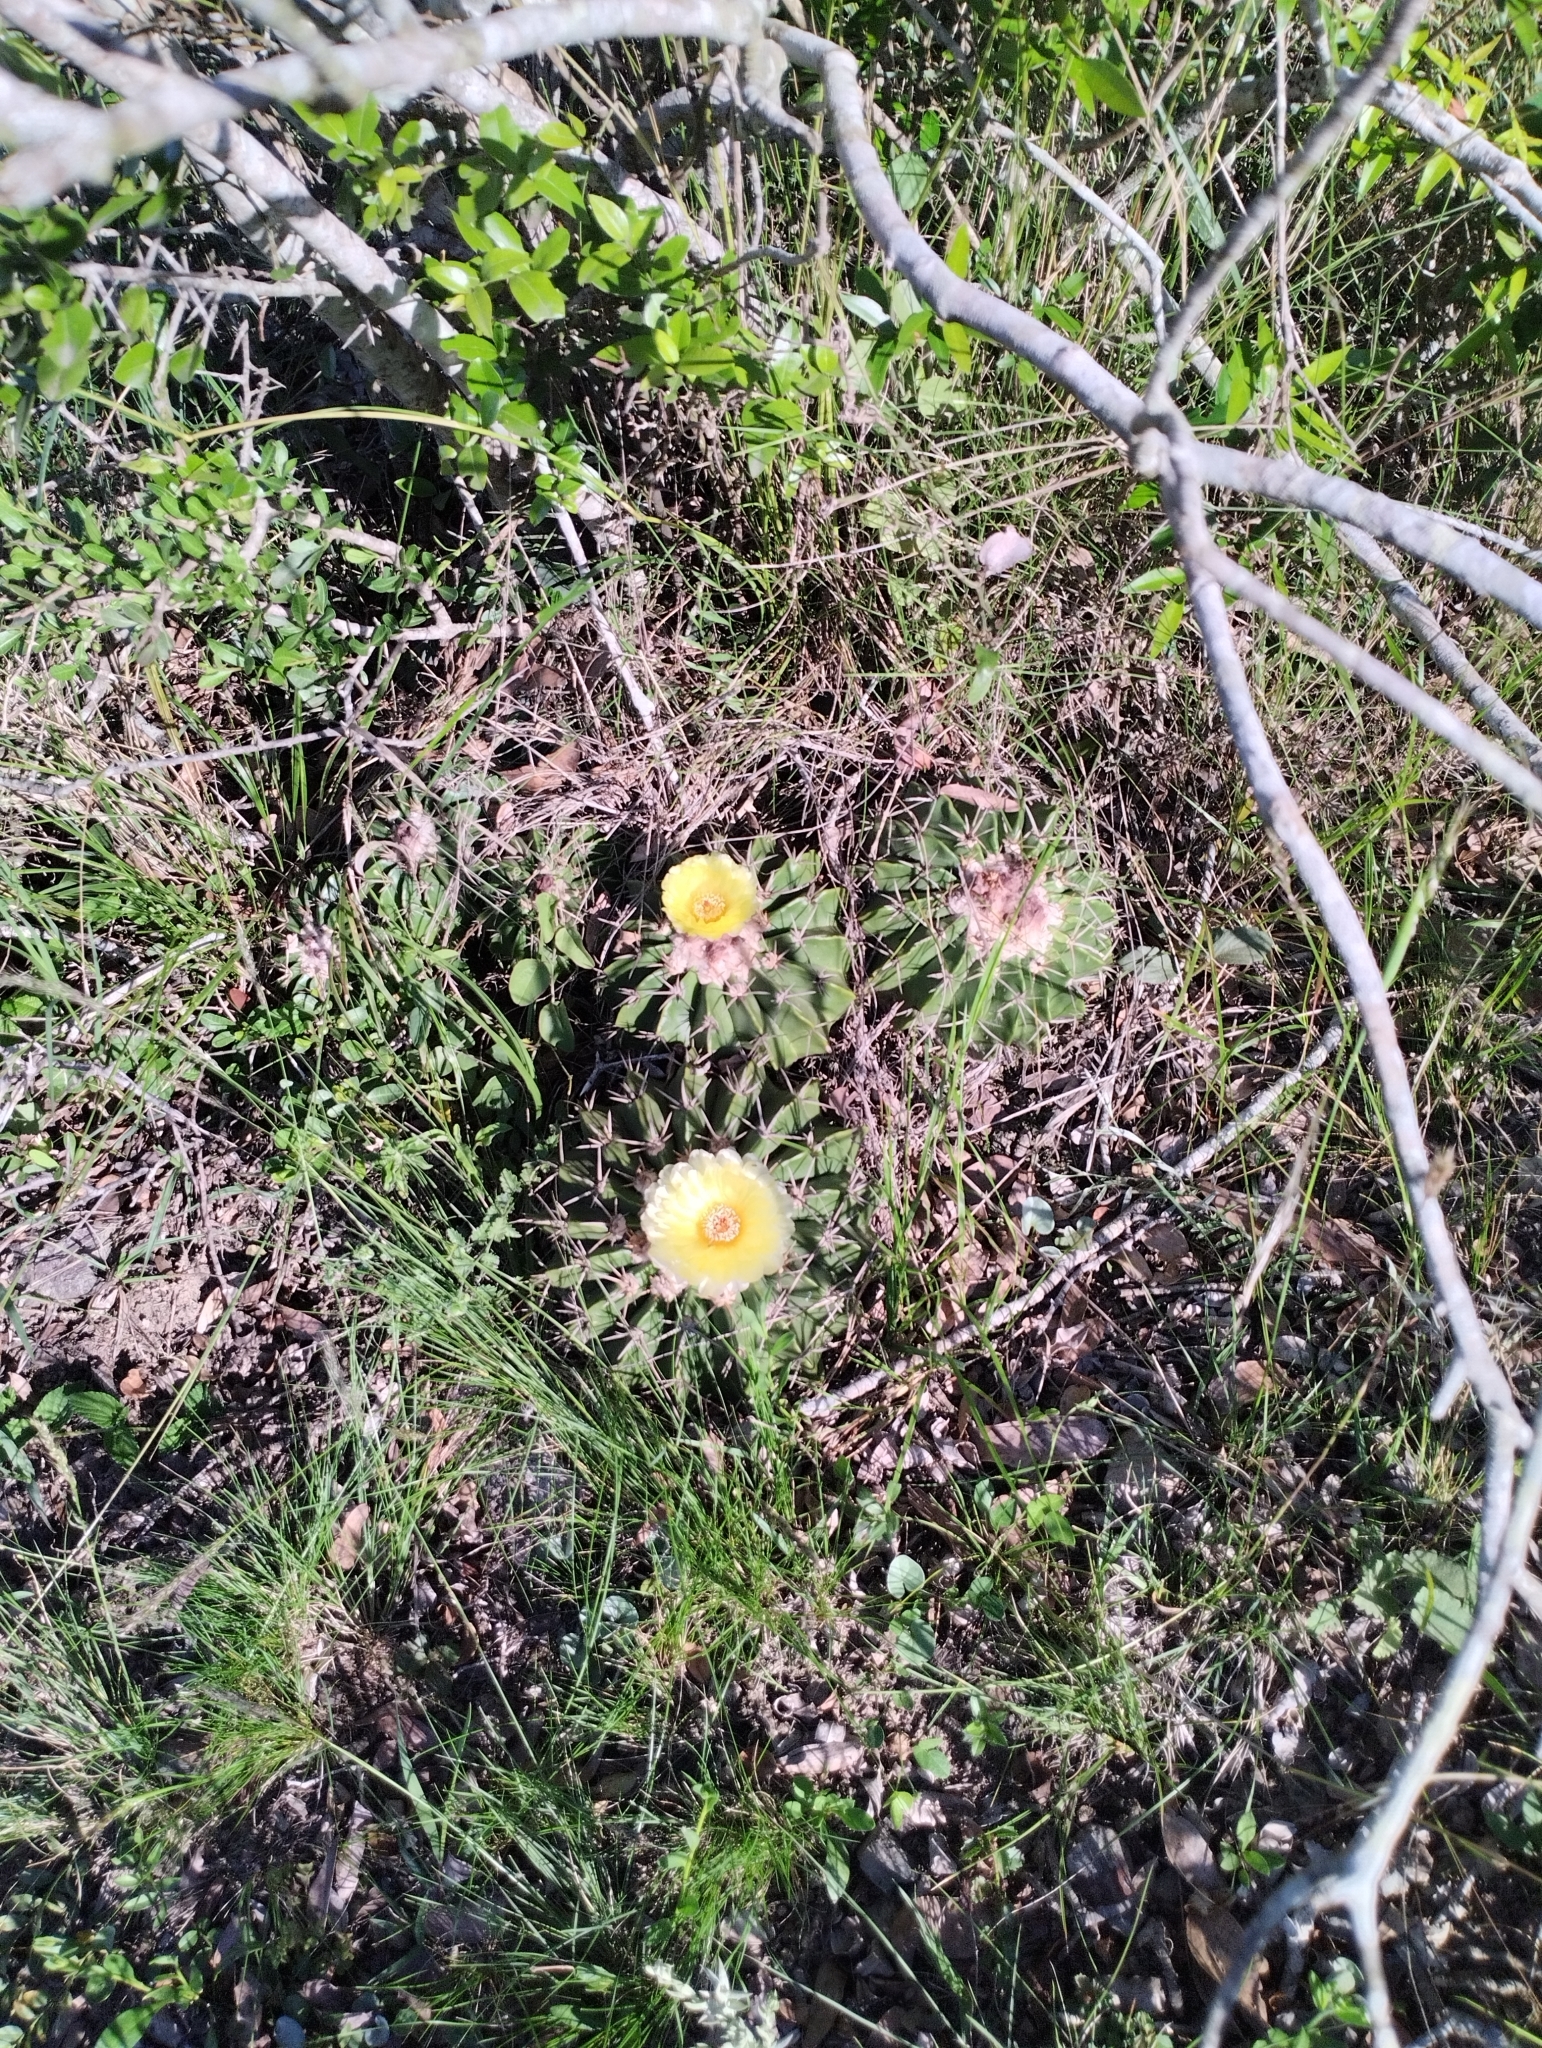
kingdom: Plantae
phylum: Tracheophyta
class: Magnoliopsida
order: Caryophyllales
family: Cactaceae
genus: Parodia
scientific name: Parodia erinacea
